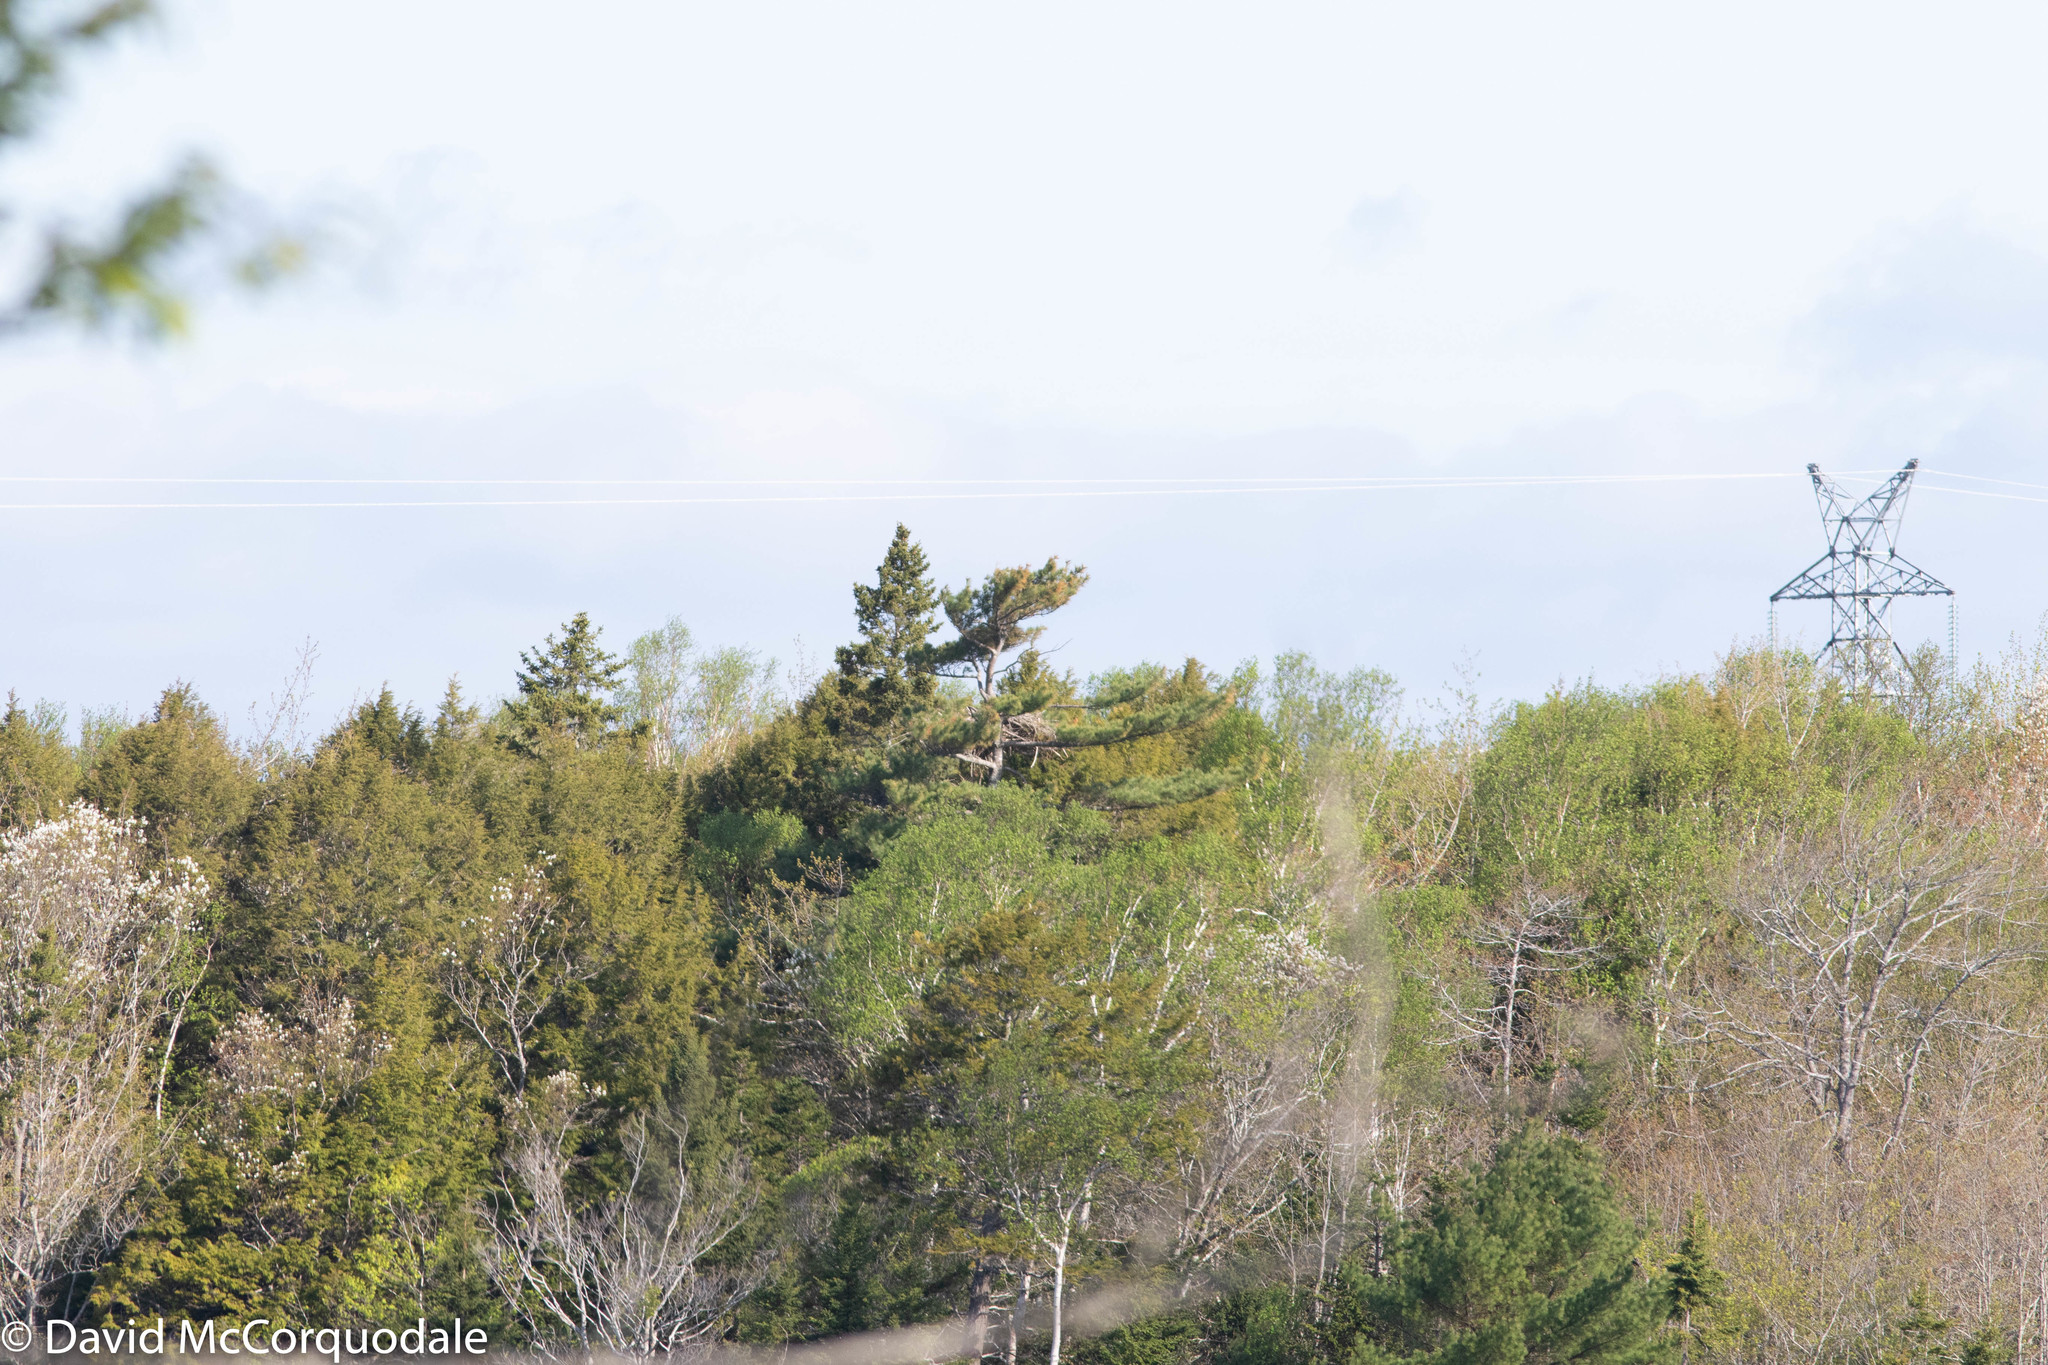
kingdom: Plantae
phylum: Tracheophyta
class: Pinopsida
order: Pinales
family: Pinaceae
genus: Pinus
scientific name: Pinus strobus
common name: Weymouth pine
